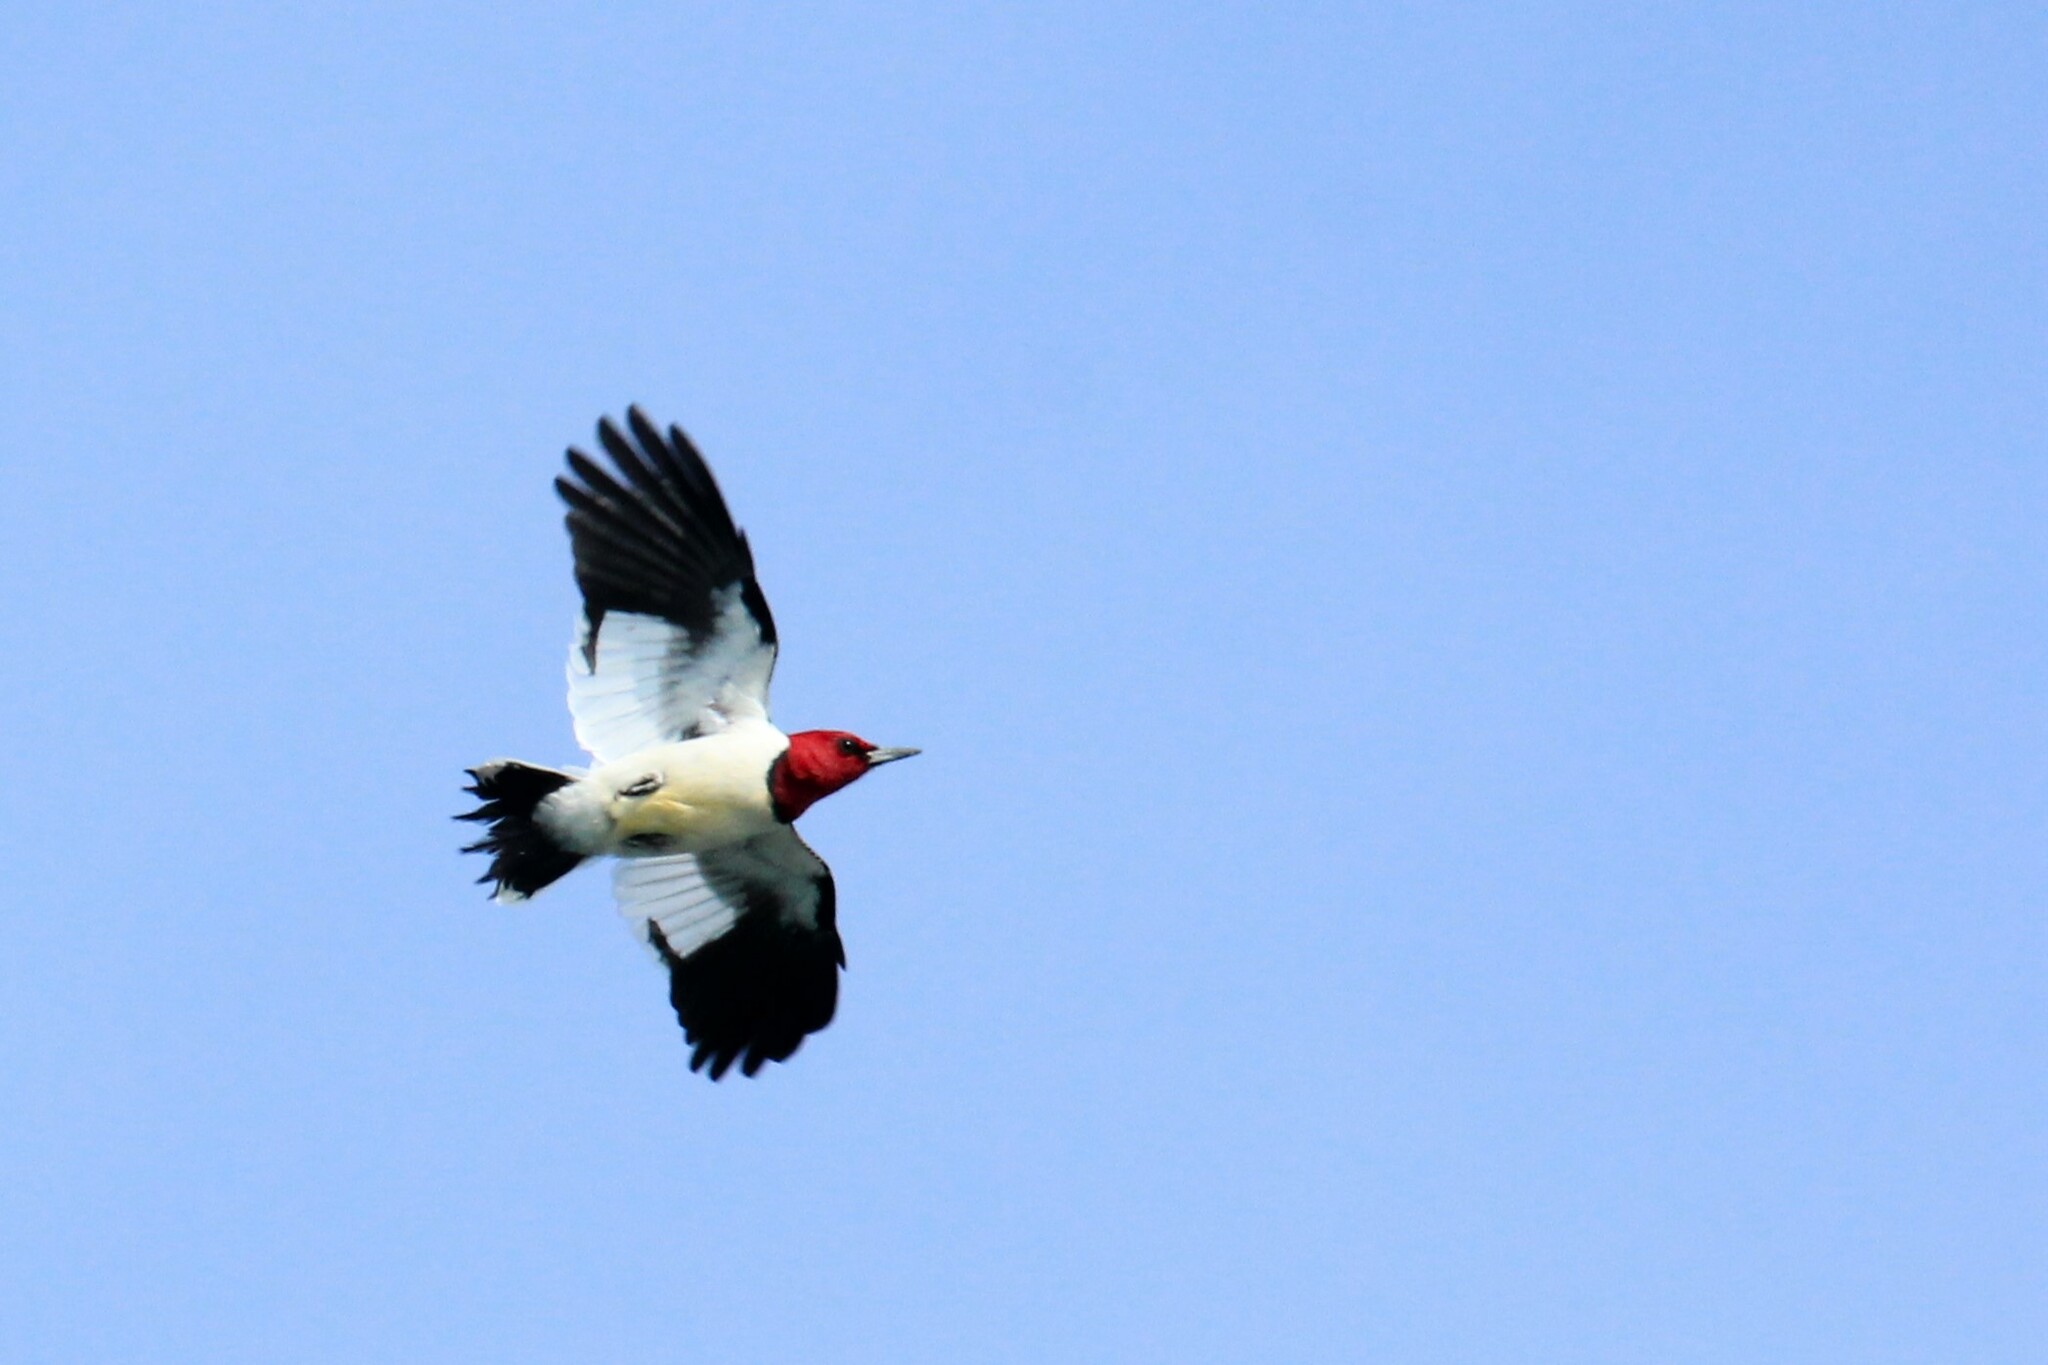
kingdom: Animalia
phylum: Chordata
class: Aves
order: Piciformes
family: Picidae
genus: Melanerpes
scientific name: Melanerpes erythrocephalus
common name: Red-headed woodpecker
